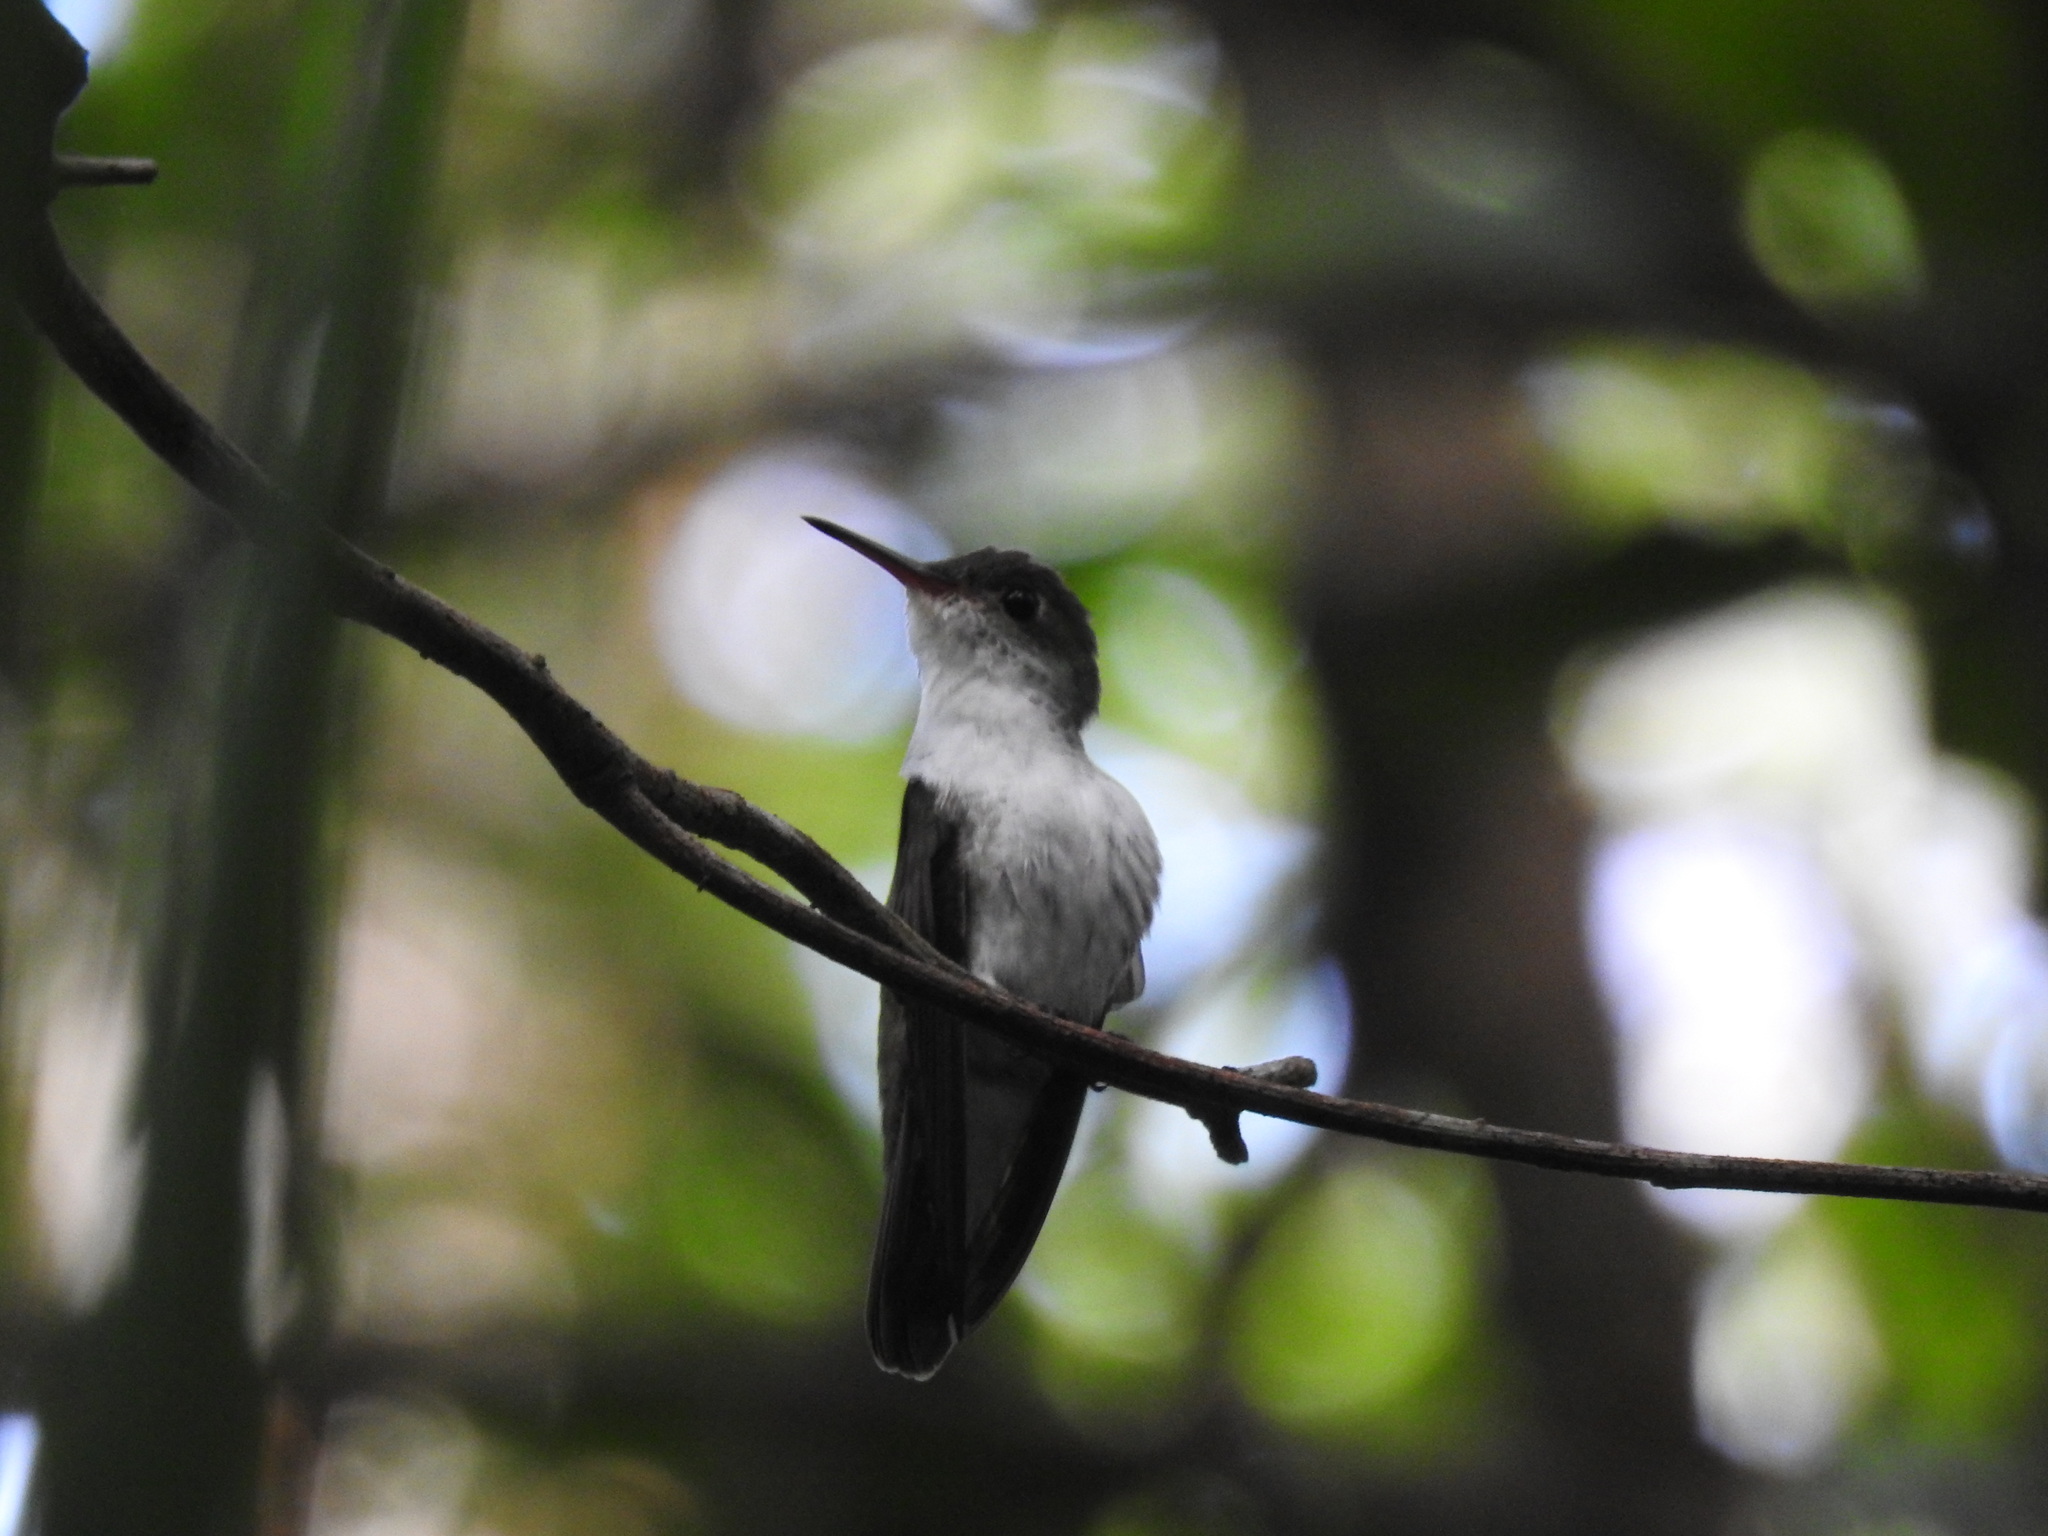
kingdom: Animalia
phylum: Chordata
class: Aves
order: Apodiformes
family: Trochilidae
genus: Chlorestes
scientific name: Chlorestes candida
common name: White-bellied emerald
